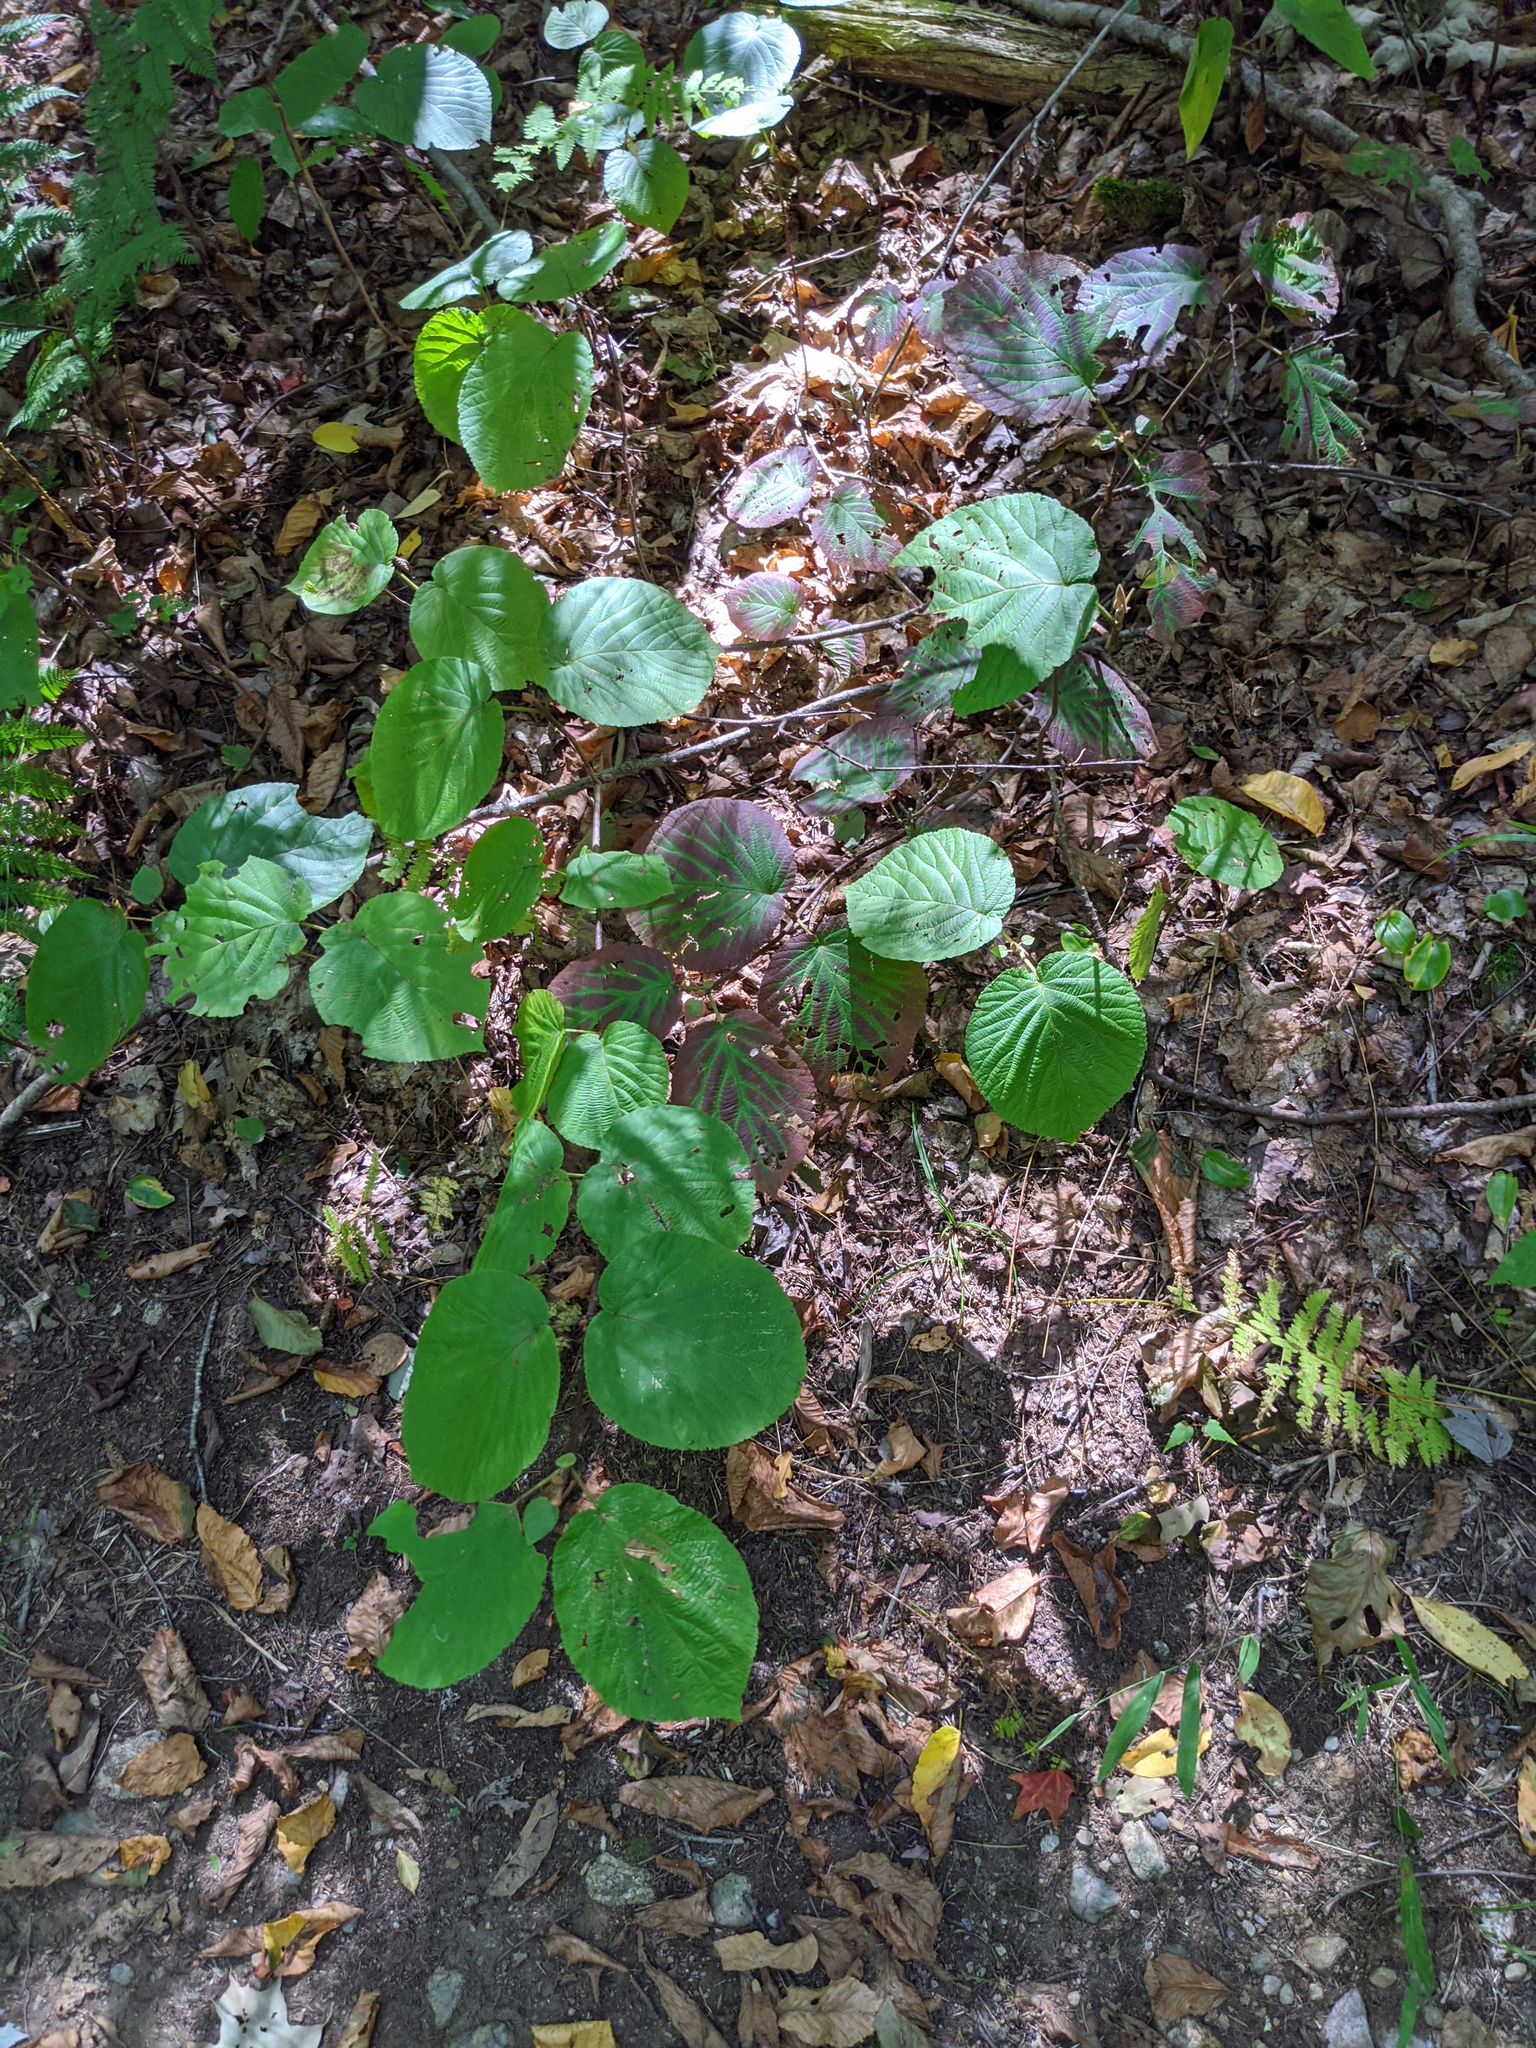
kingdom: Plantae
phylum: Tracheophyta
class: Magnoliopsida
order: Dipsacales
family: Viburnaceae
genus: Viburnum
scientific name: Viburnum lantanoides
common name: Hobblebush
